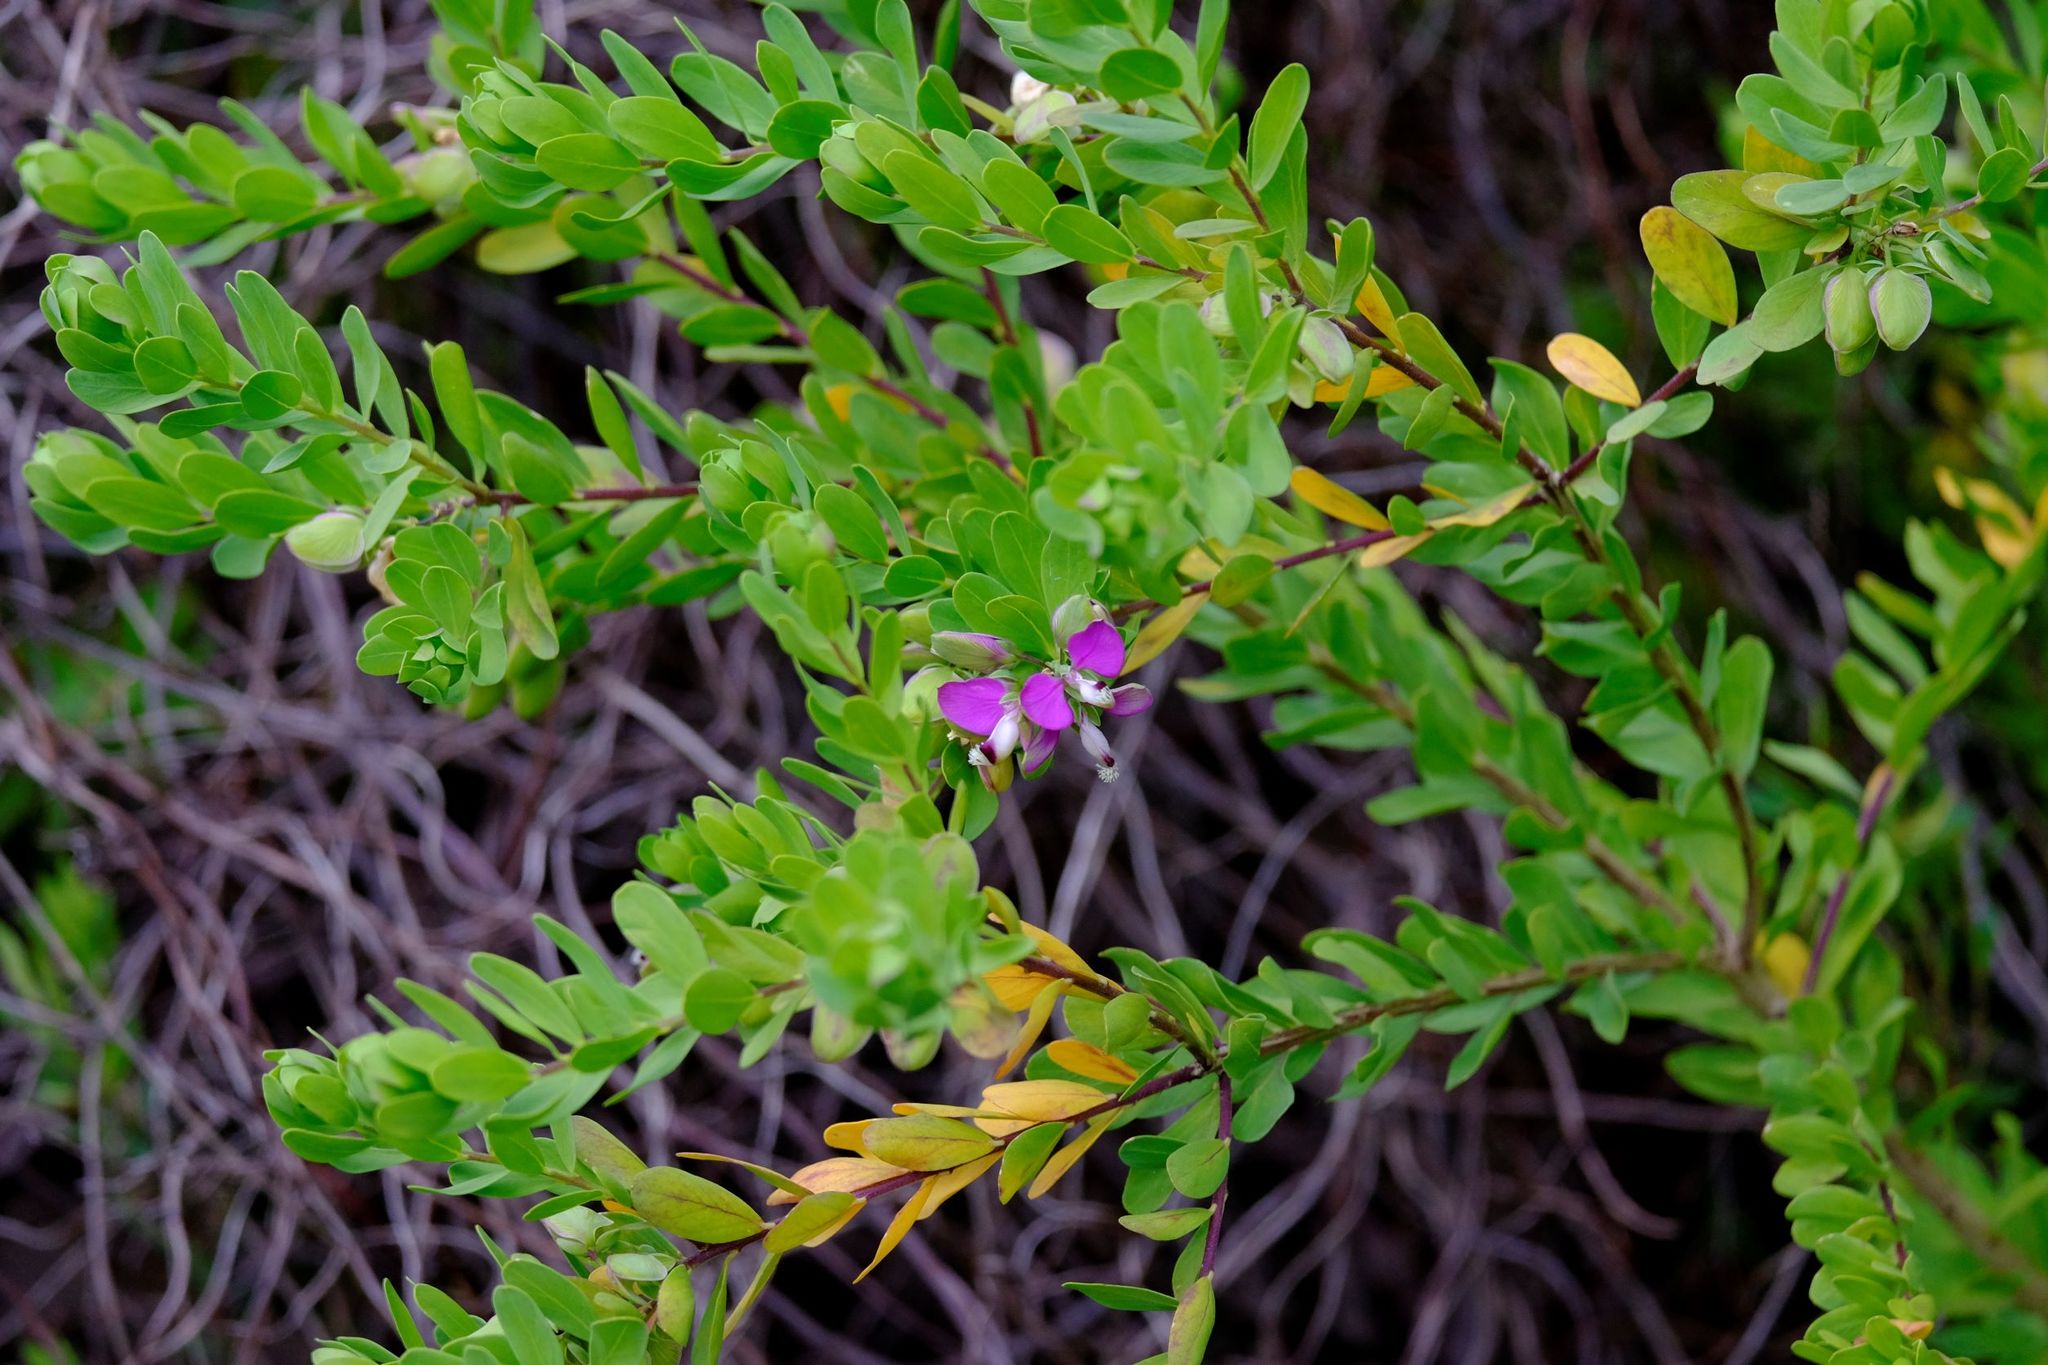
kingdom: Plantae
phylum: Tracheophyta
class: Magnoliopsida
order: Fabales
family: Polygalaceae
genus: Polygala
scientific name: Polygala myrtifolia
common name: Myrtle-leaf milkwort
